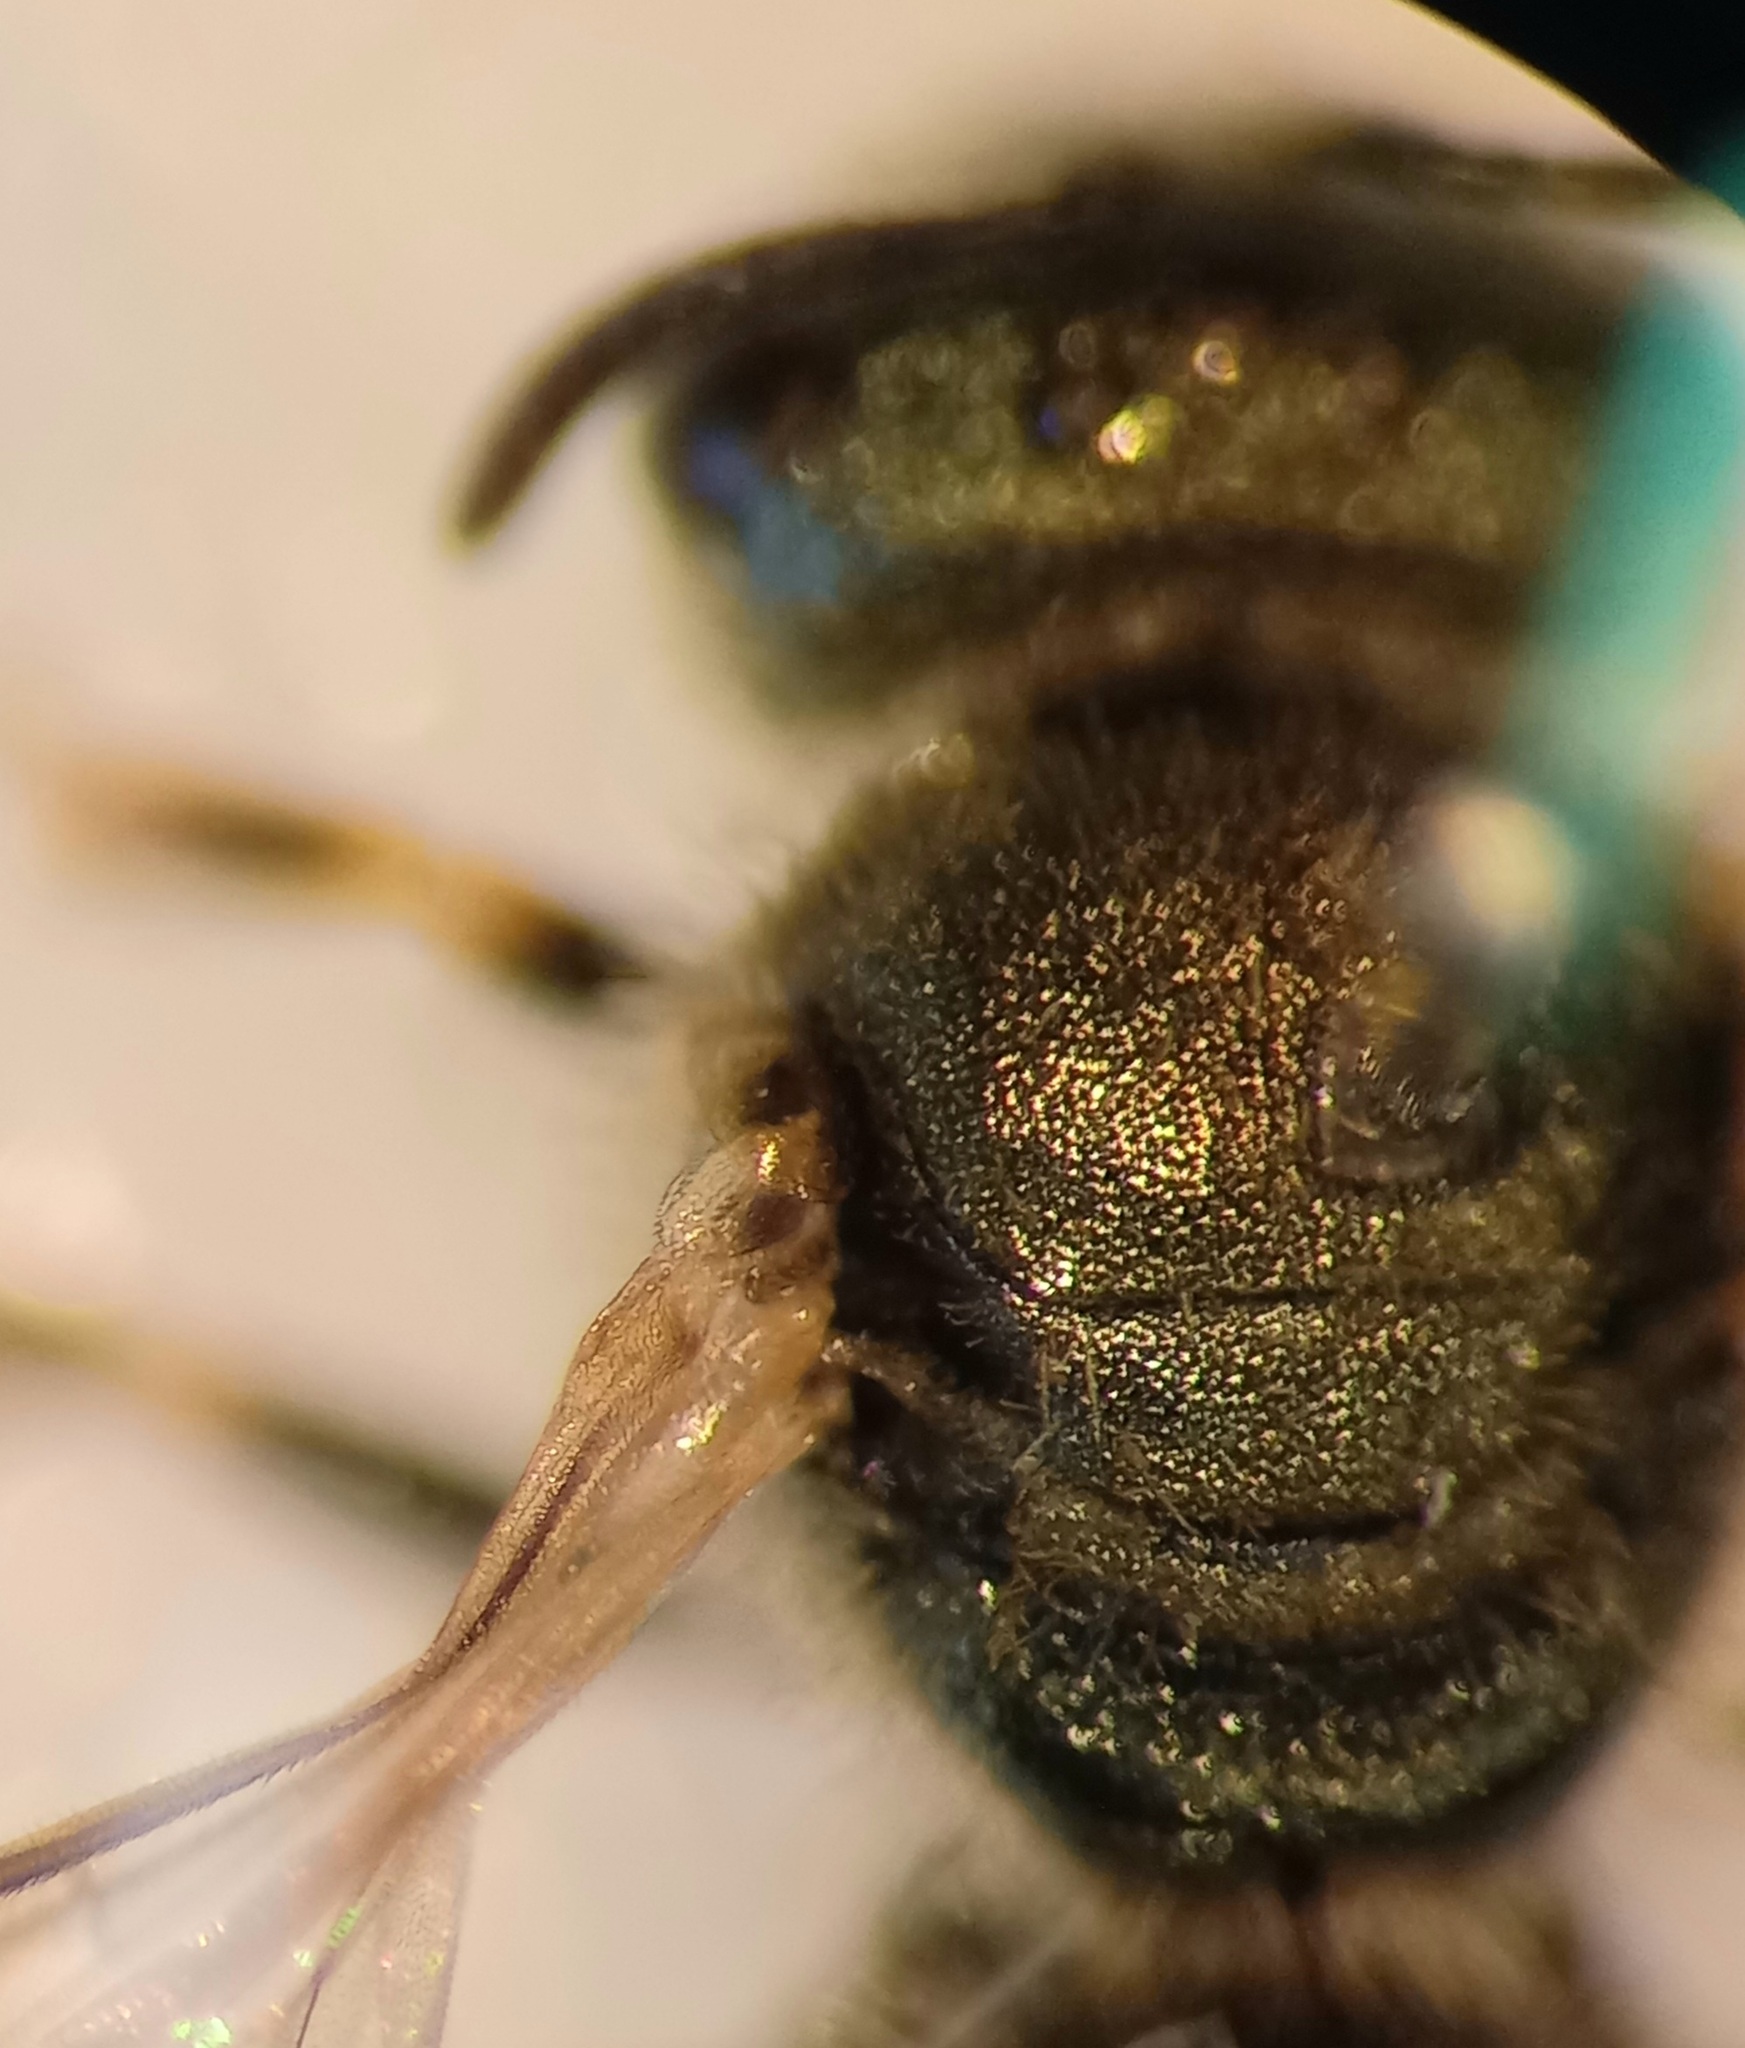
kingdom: Animalia
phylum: Arthropoda
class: Insecta
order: Hymenoptera
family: Halictidae
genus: Halictus
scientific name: Halictus subauratus
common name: Golden furrow bee
